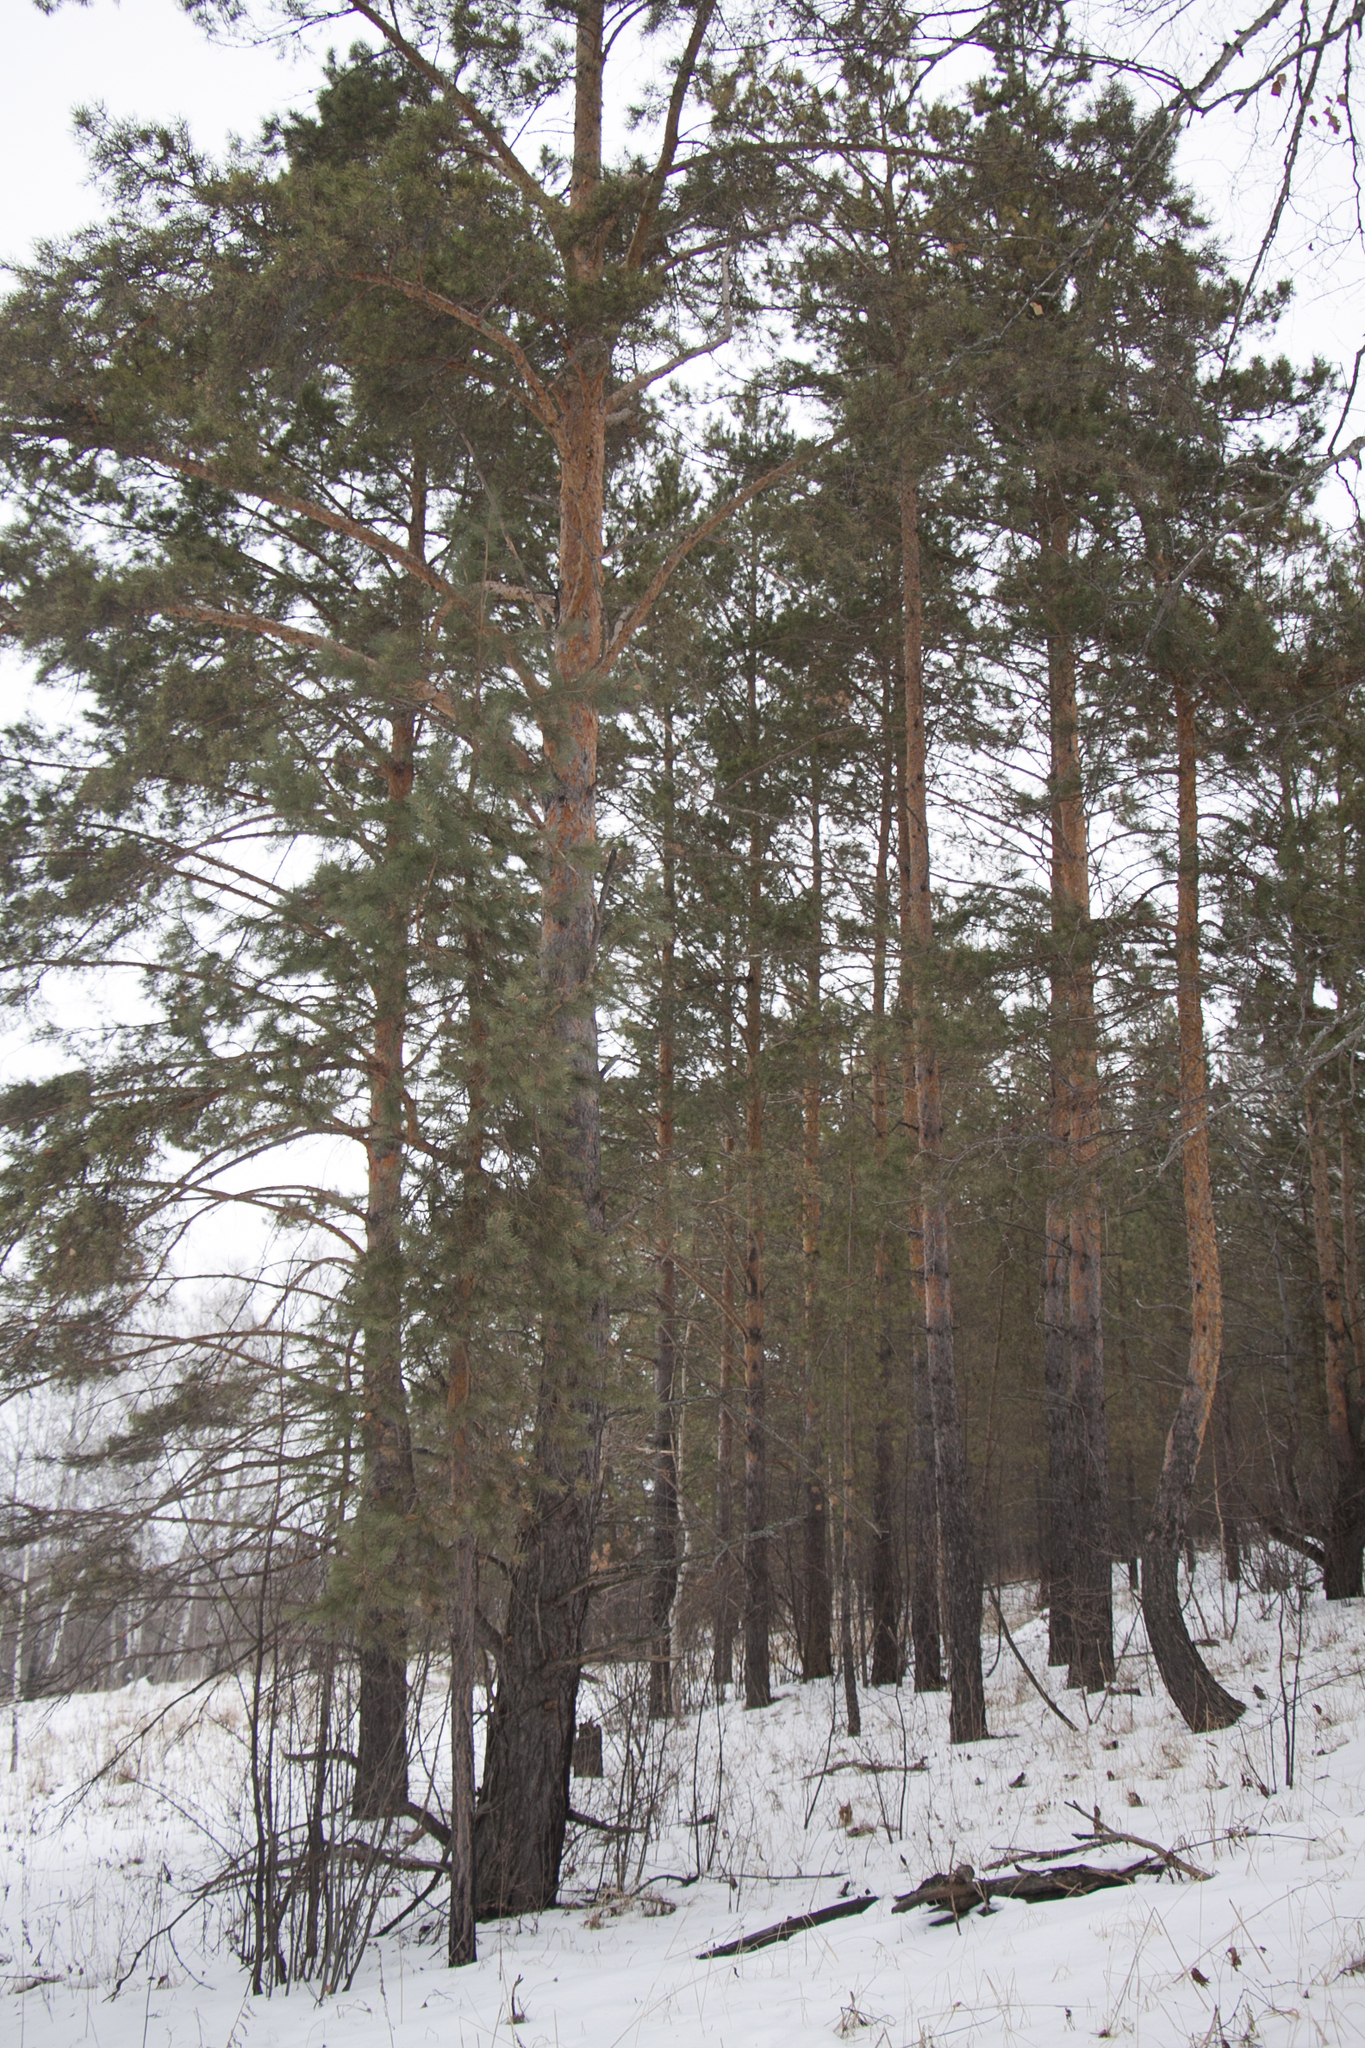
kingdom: Plantae
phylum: Tracheophyta
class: Pinopsida
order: Pinales
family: Pinaceae
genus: Pinus
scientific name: Pinus sylvestris
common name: Scots pine
